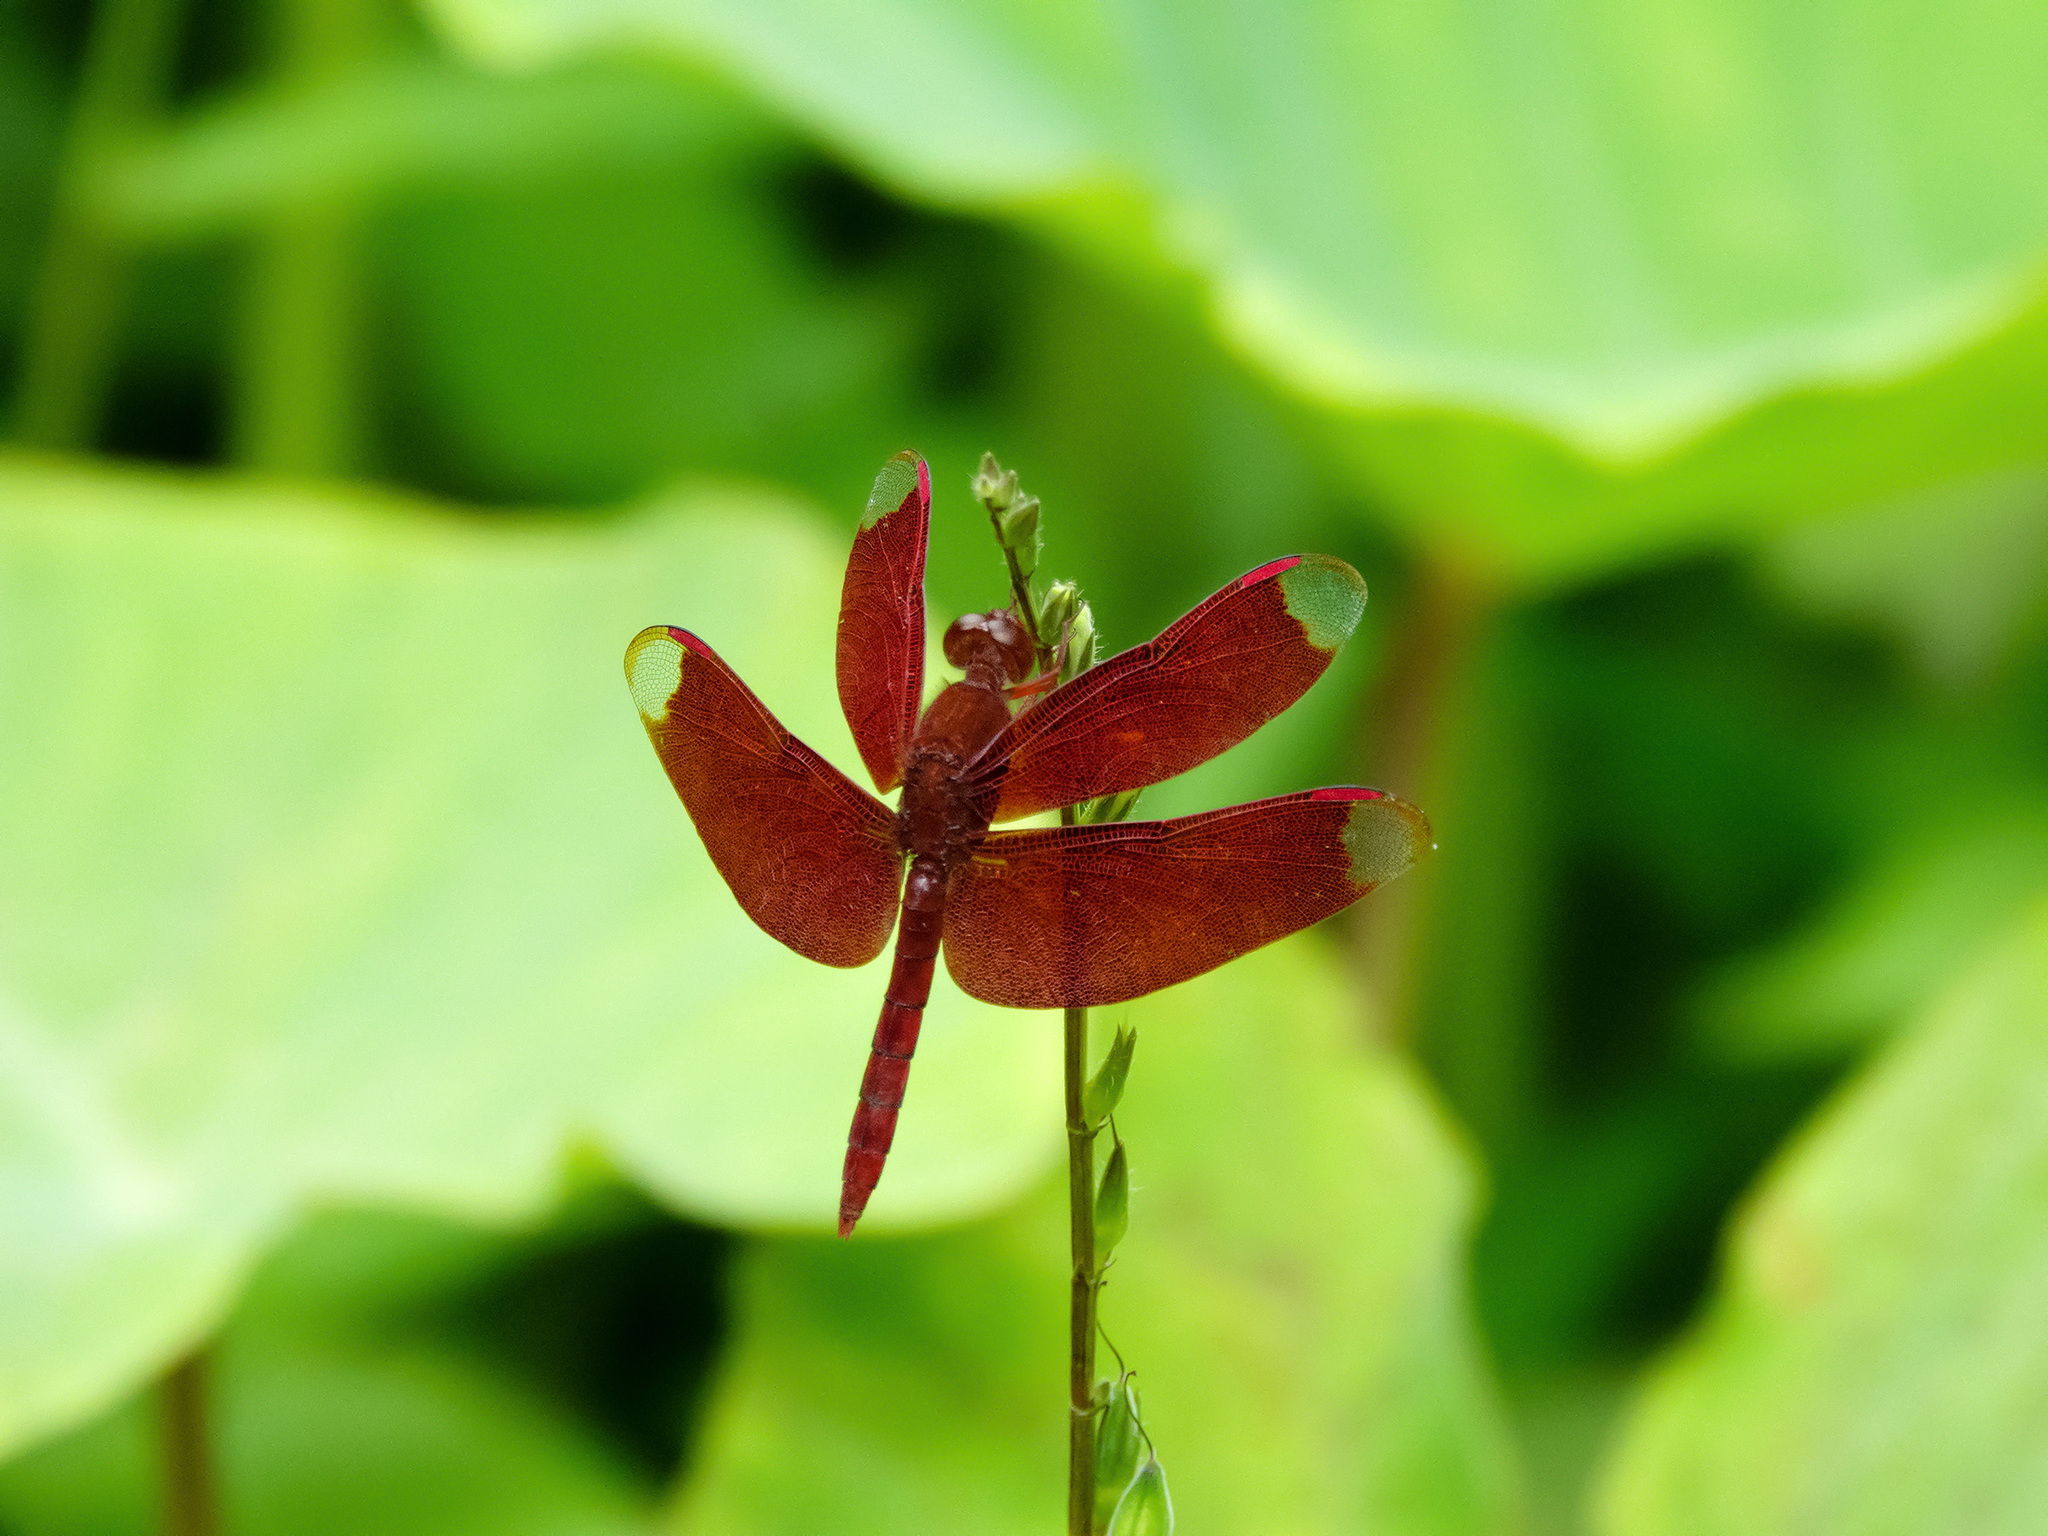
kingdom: Animalia
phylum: Arthropoda
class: Insecta
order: Odonata
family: Libellulidae
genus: Neurothemis
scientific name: Neurothemis fulvia
